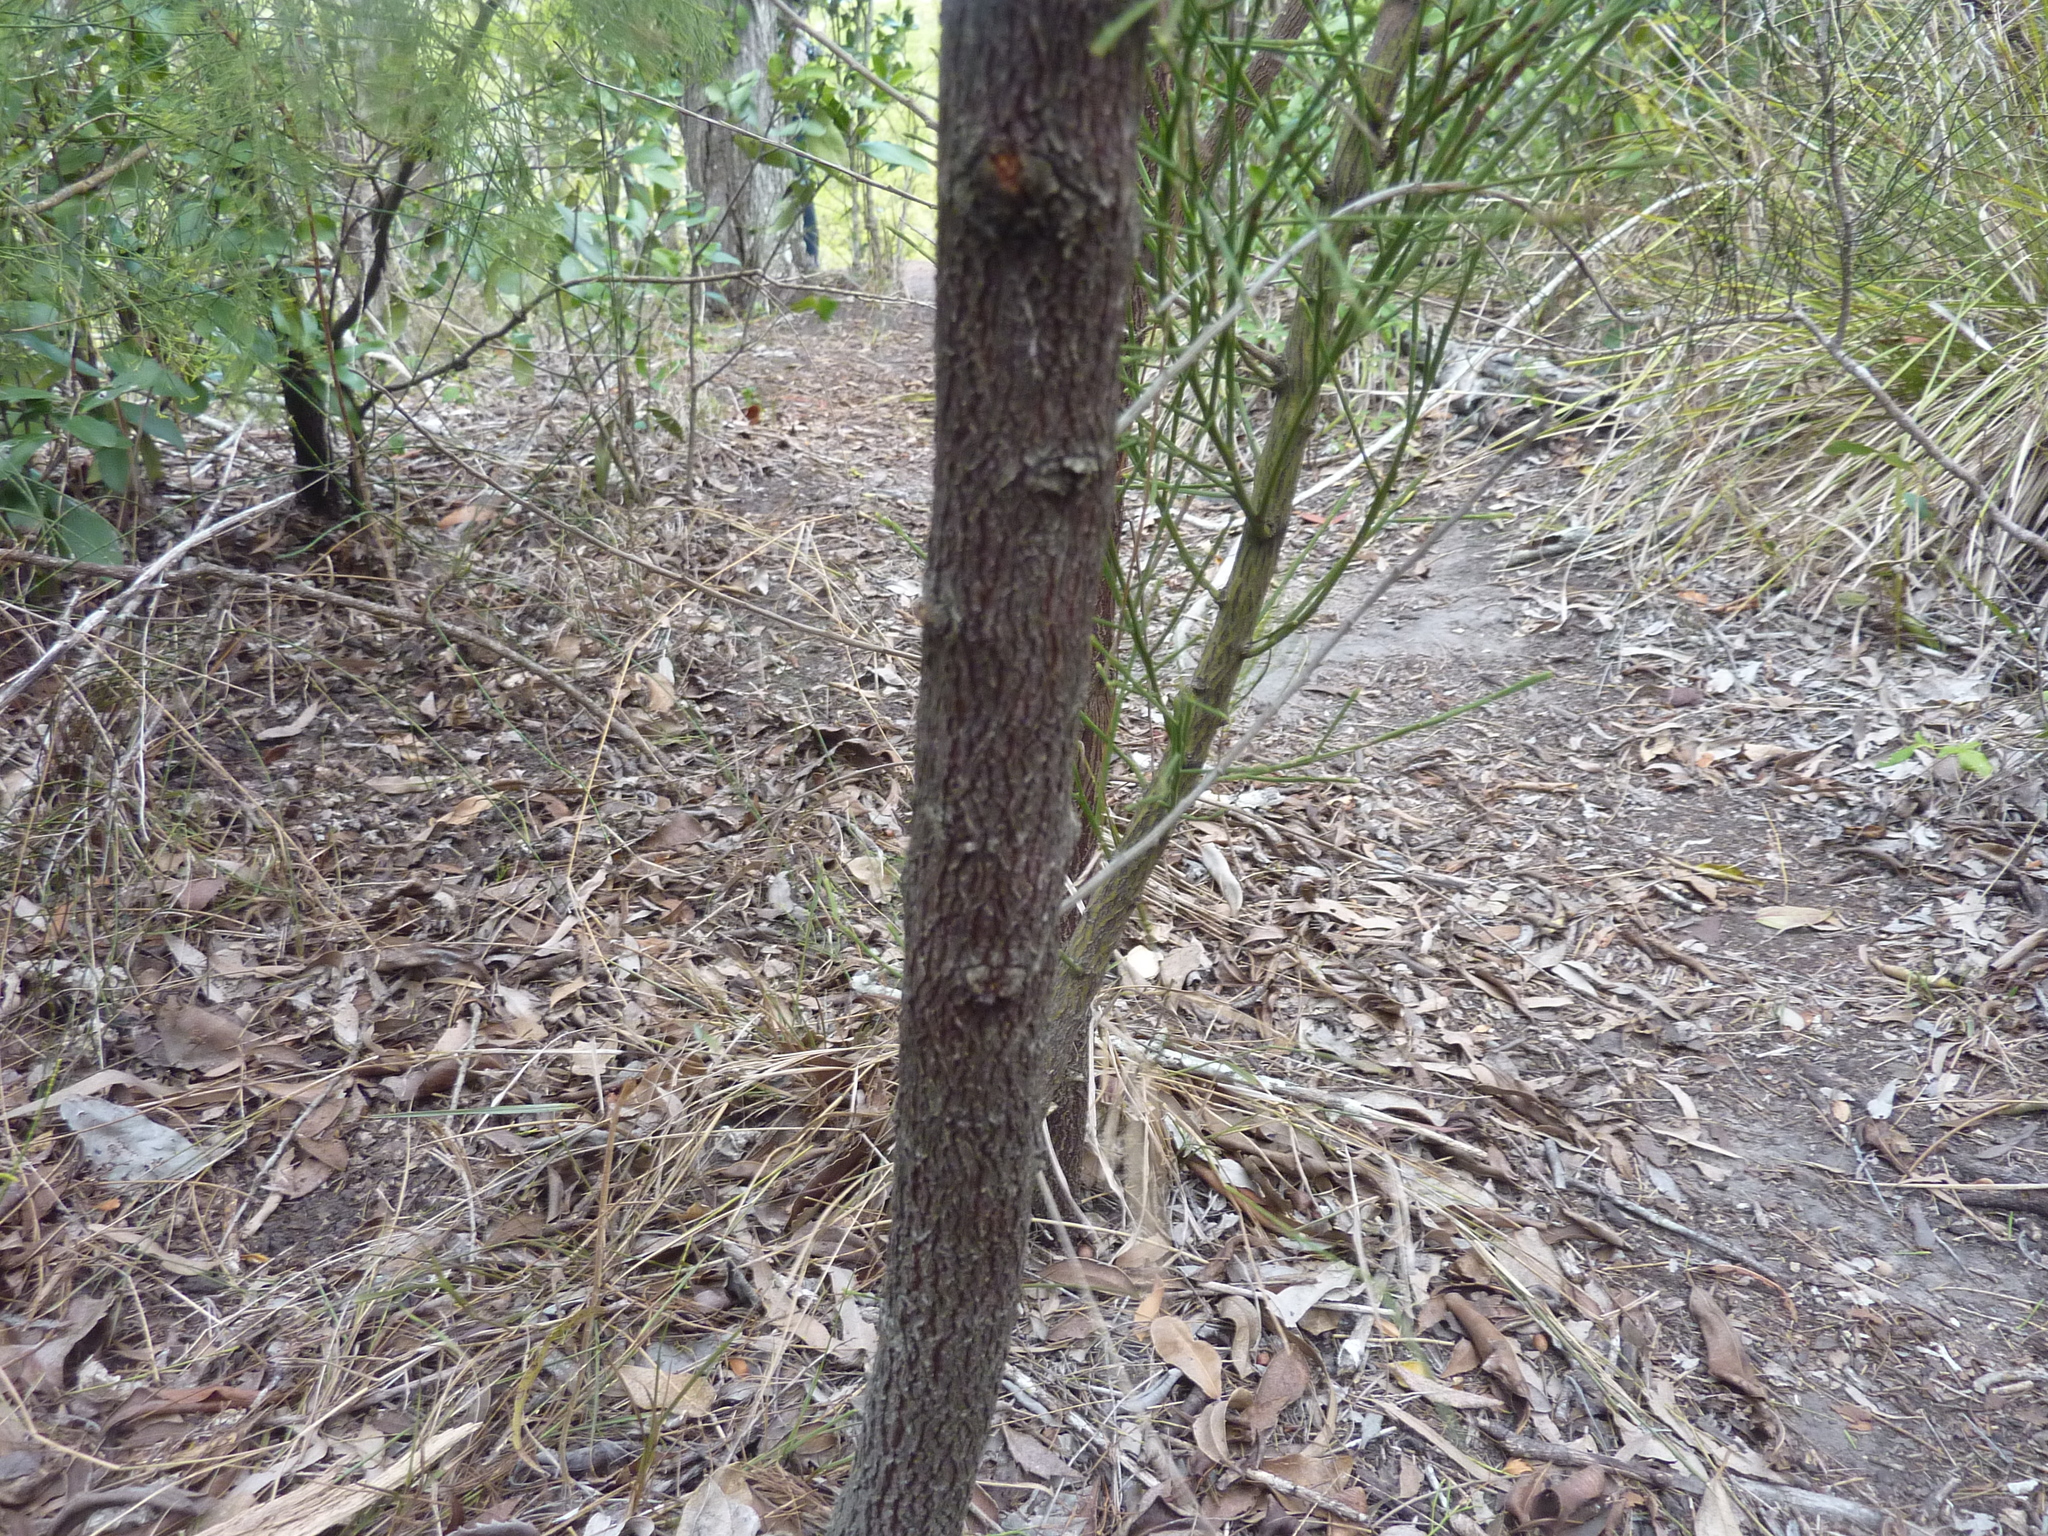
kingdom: Plantae
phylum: Tracheophyta
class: Magnoliopsida
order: Santalales
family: Santalaceae
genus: Exocarpos
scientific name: Exocarpos cupressiformis
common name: Cherry ballart
